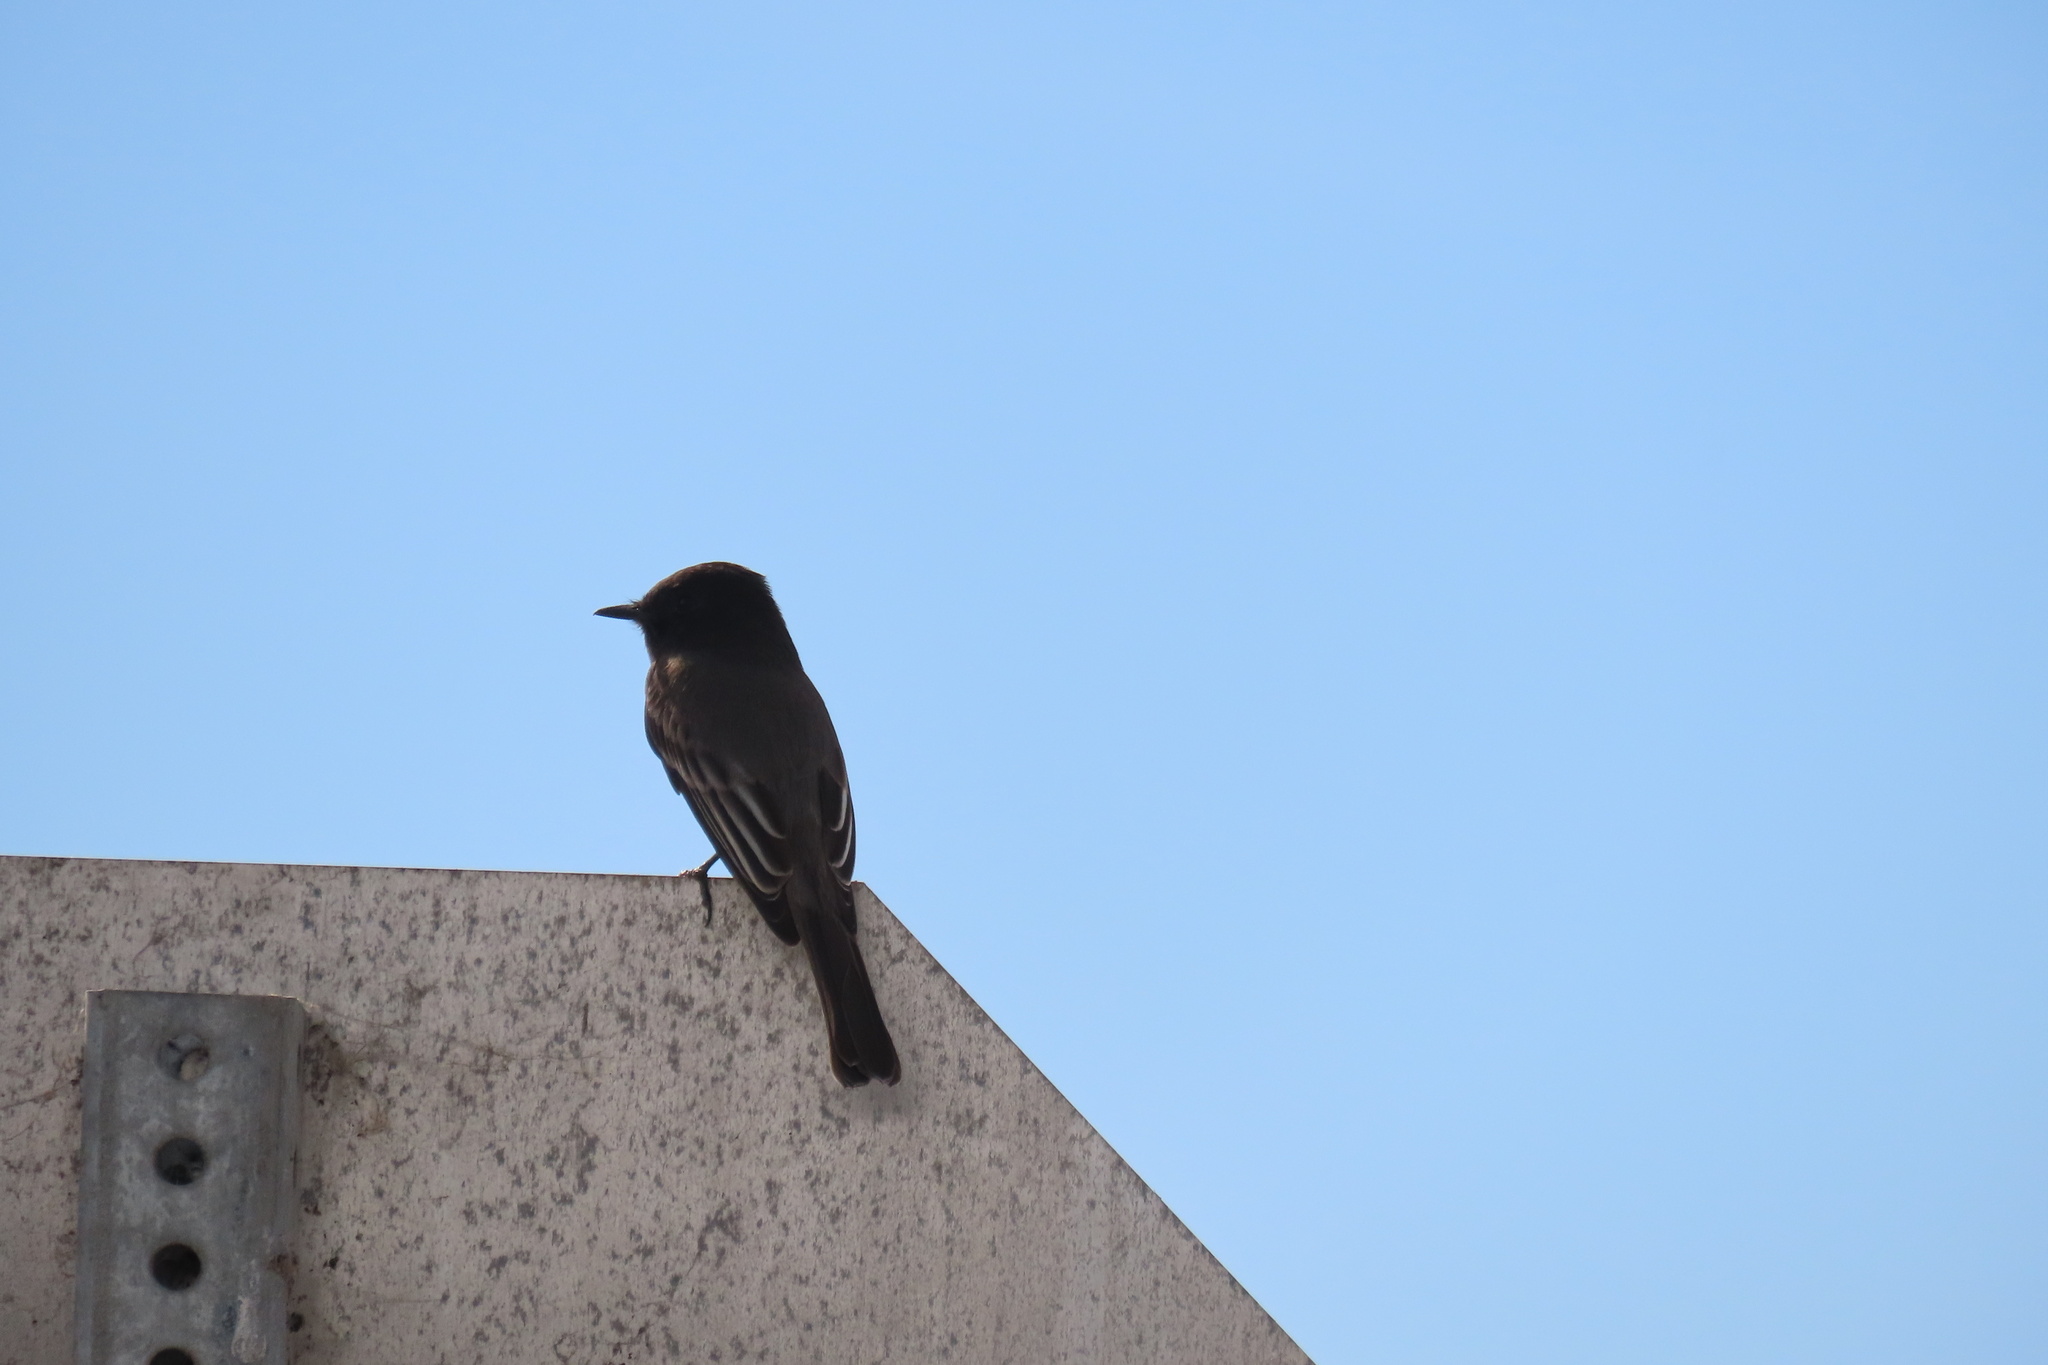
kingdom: Animalia
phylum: Chordata
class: Aves
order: Passeriformes
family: Tyrannidae
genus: Sayornis
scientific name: Sayornis nigricans
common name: Black phoebe
